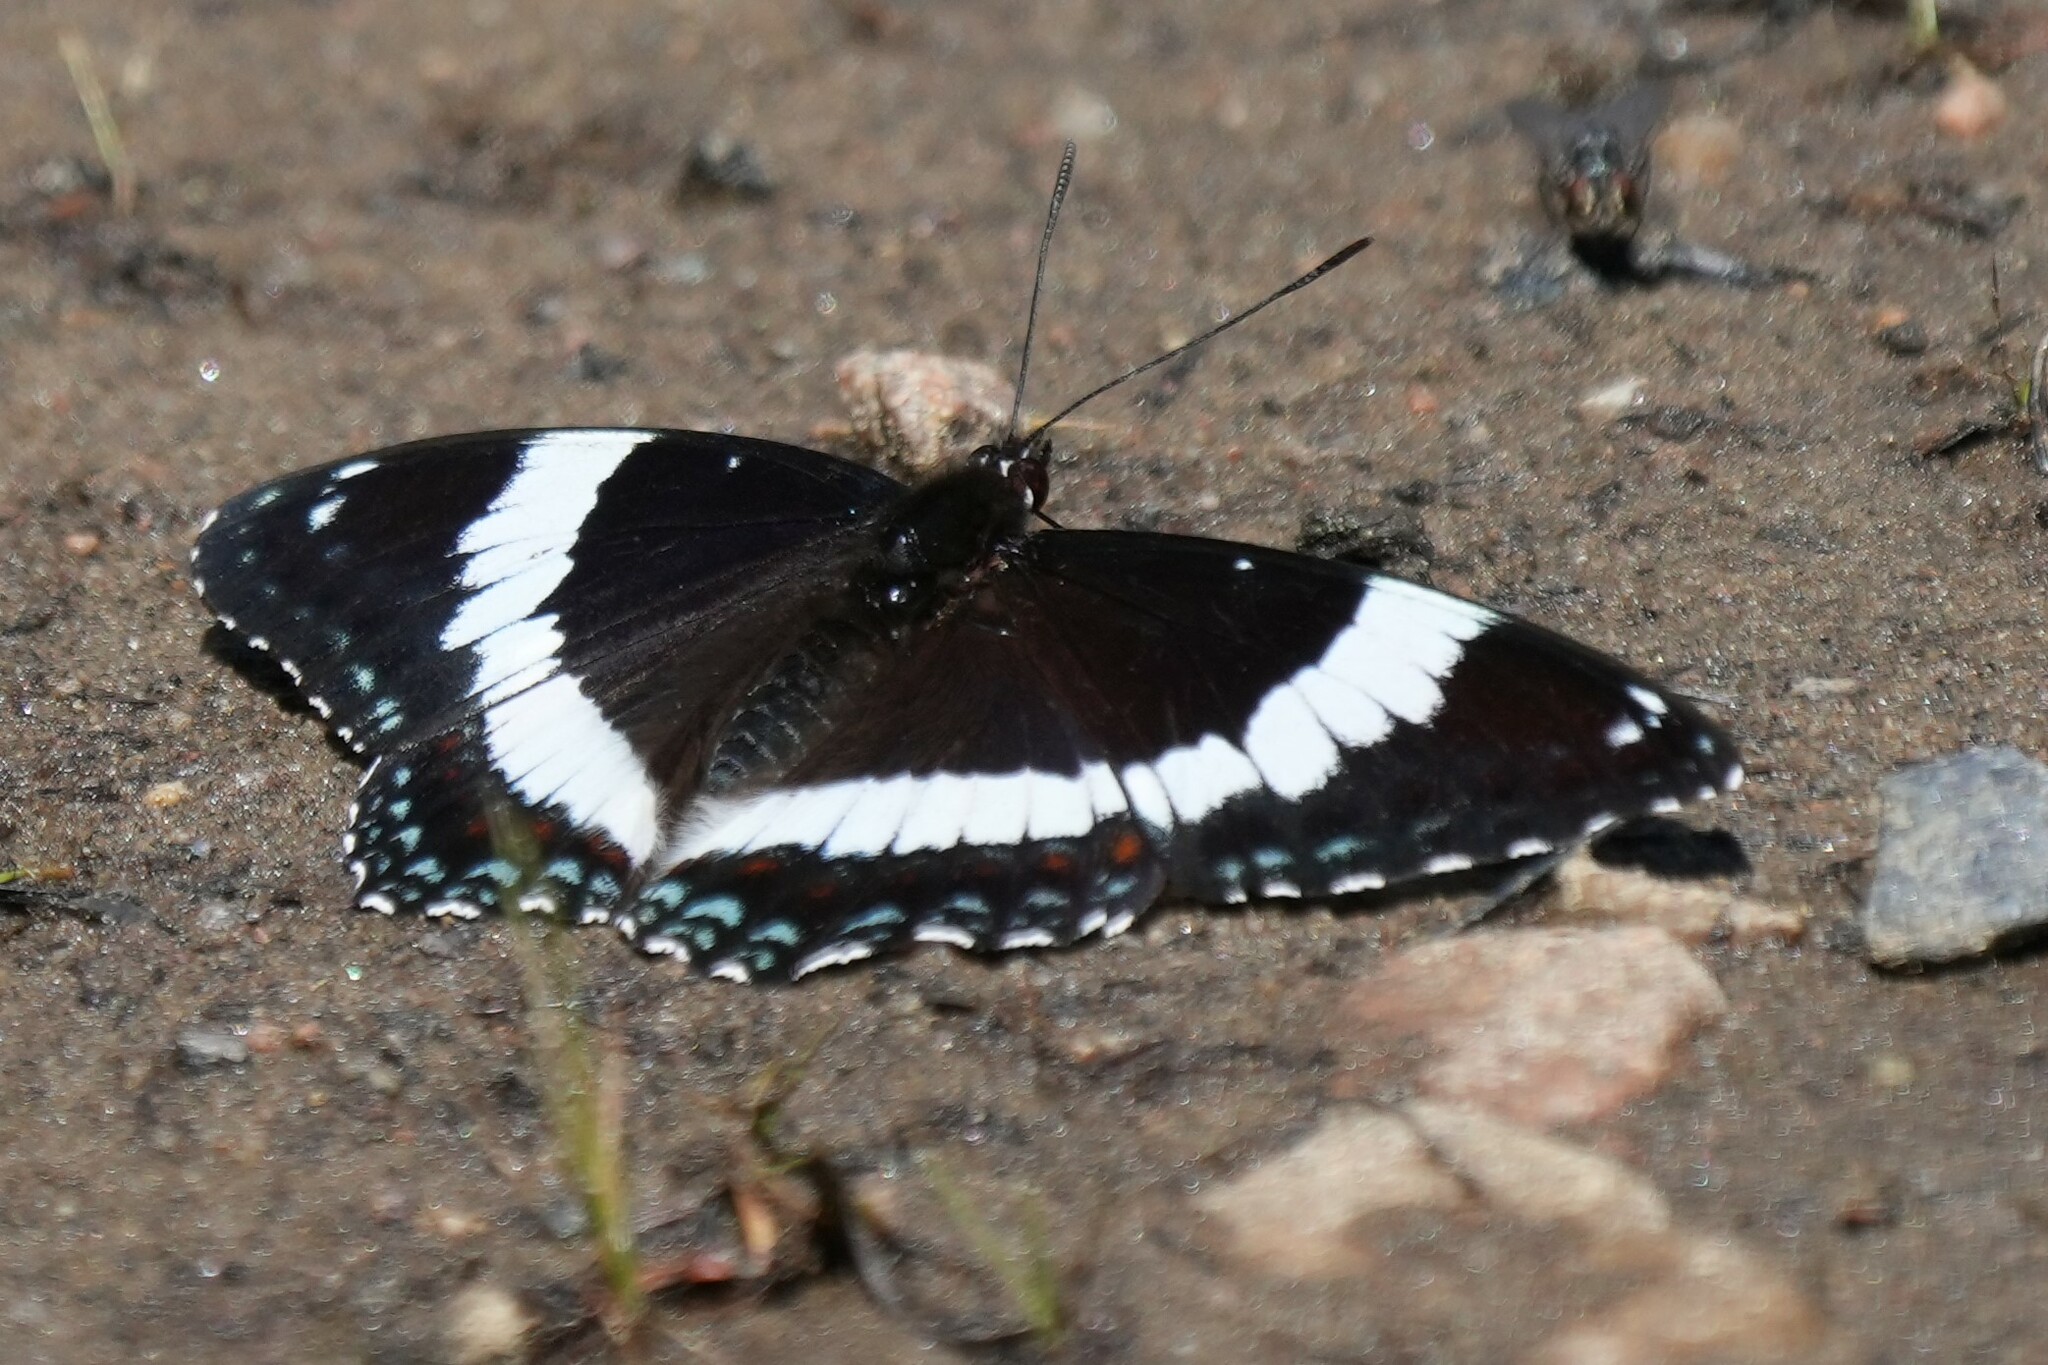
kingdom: Animalia
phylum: Arthropoda
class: Insecta
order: Lepidoptera
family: Nymphalidae
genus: Limenitis
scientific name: Limenitis arthemis
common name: Red-spotted admiral
